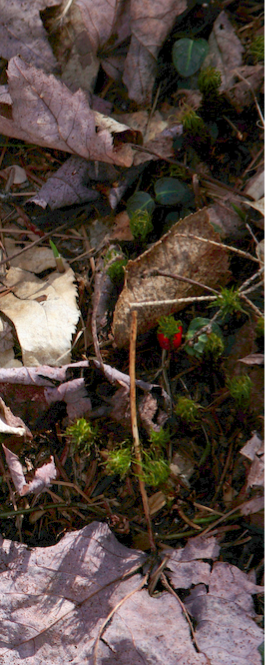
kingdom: Plantae
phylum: Tracheophyta
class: Magnoliopsida
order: Gentianales
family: Rubiaceae
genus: Mitchella
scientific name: Mitchella repens
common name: Partridge-berry
